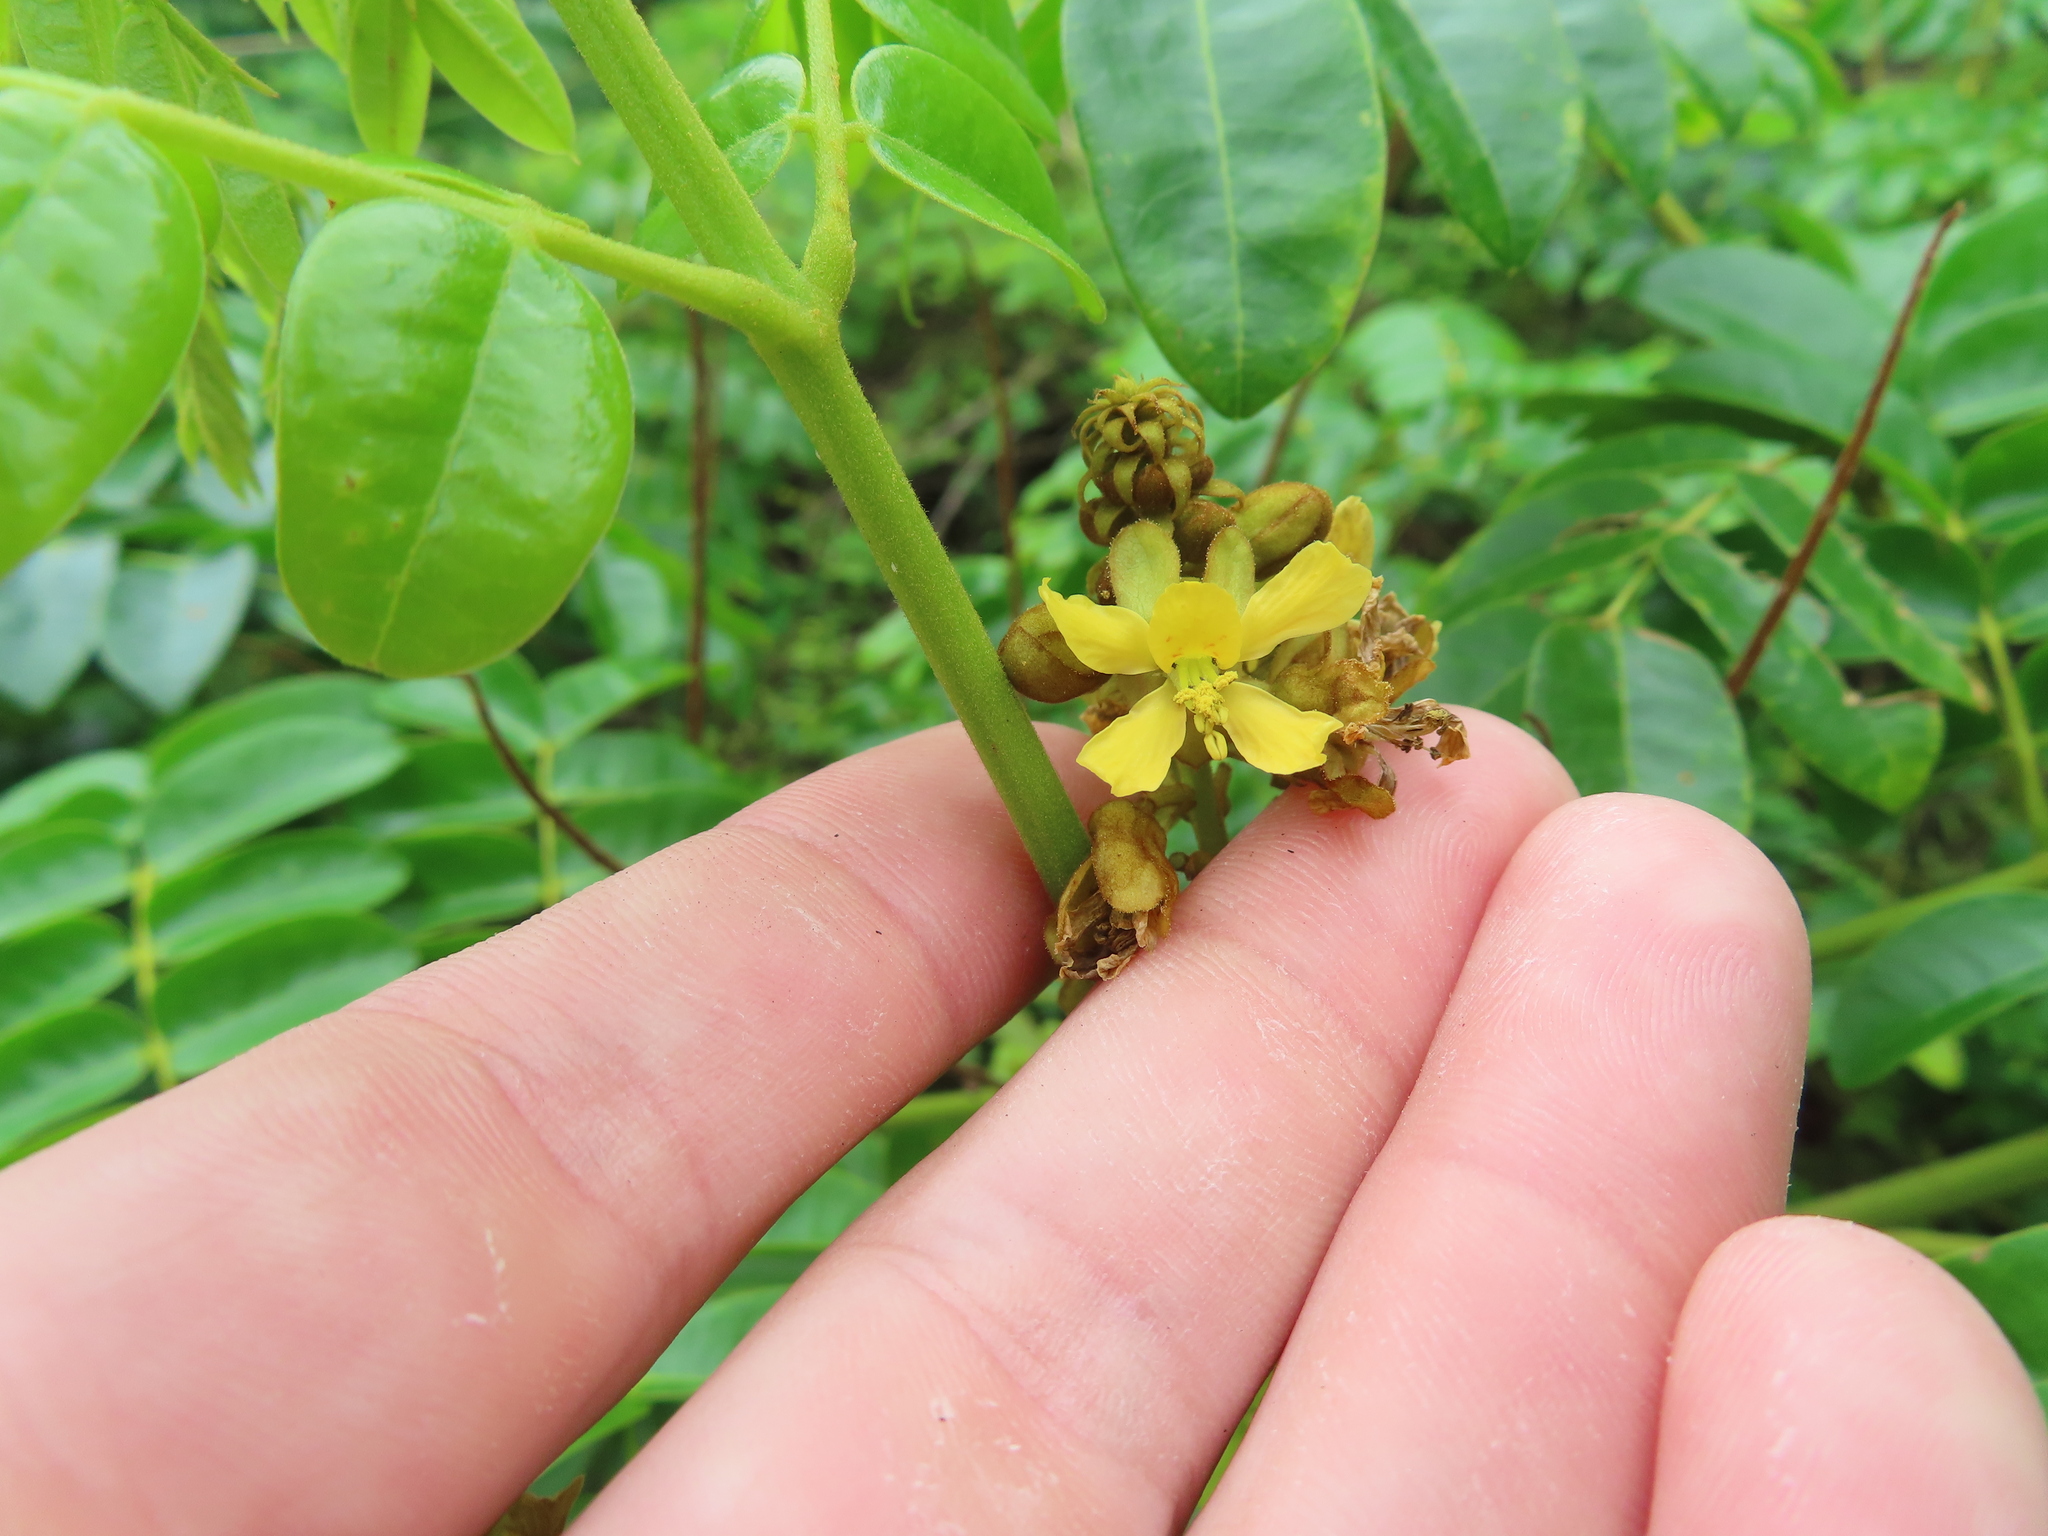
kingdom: Plantae
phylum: Tracheophyta
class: Magnoliopsida
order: Fabales
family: Fabaceae
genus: Guilandina
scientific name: Guilandina bonduc
